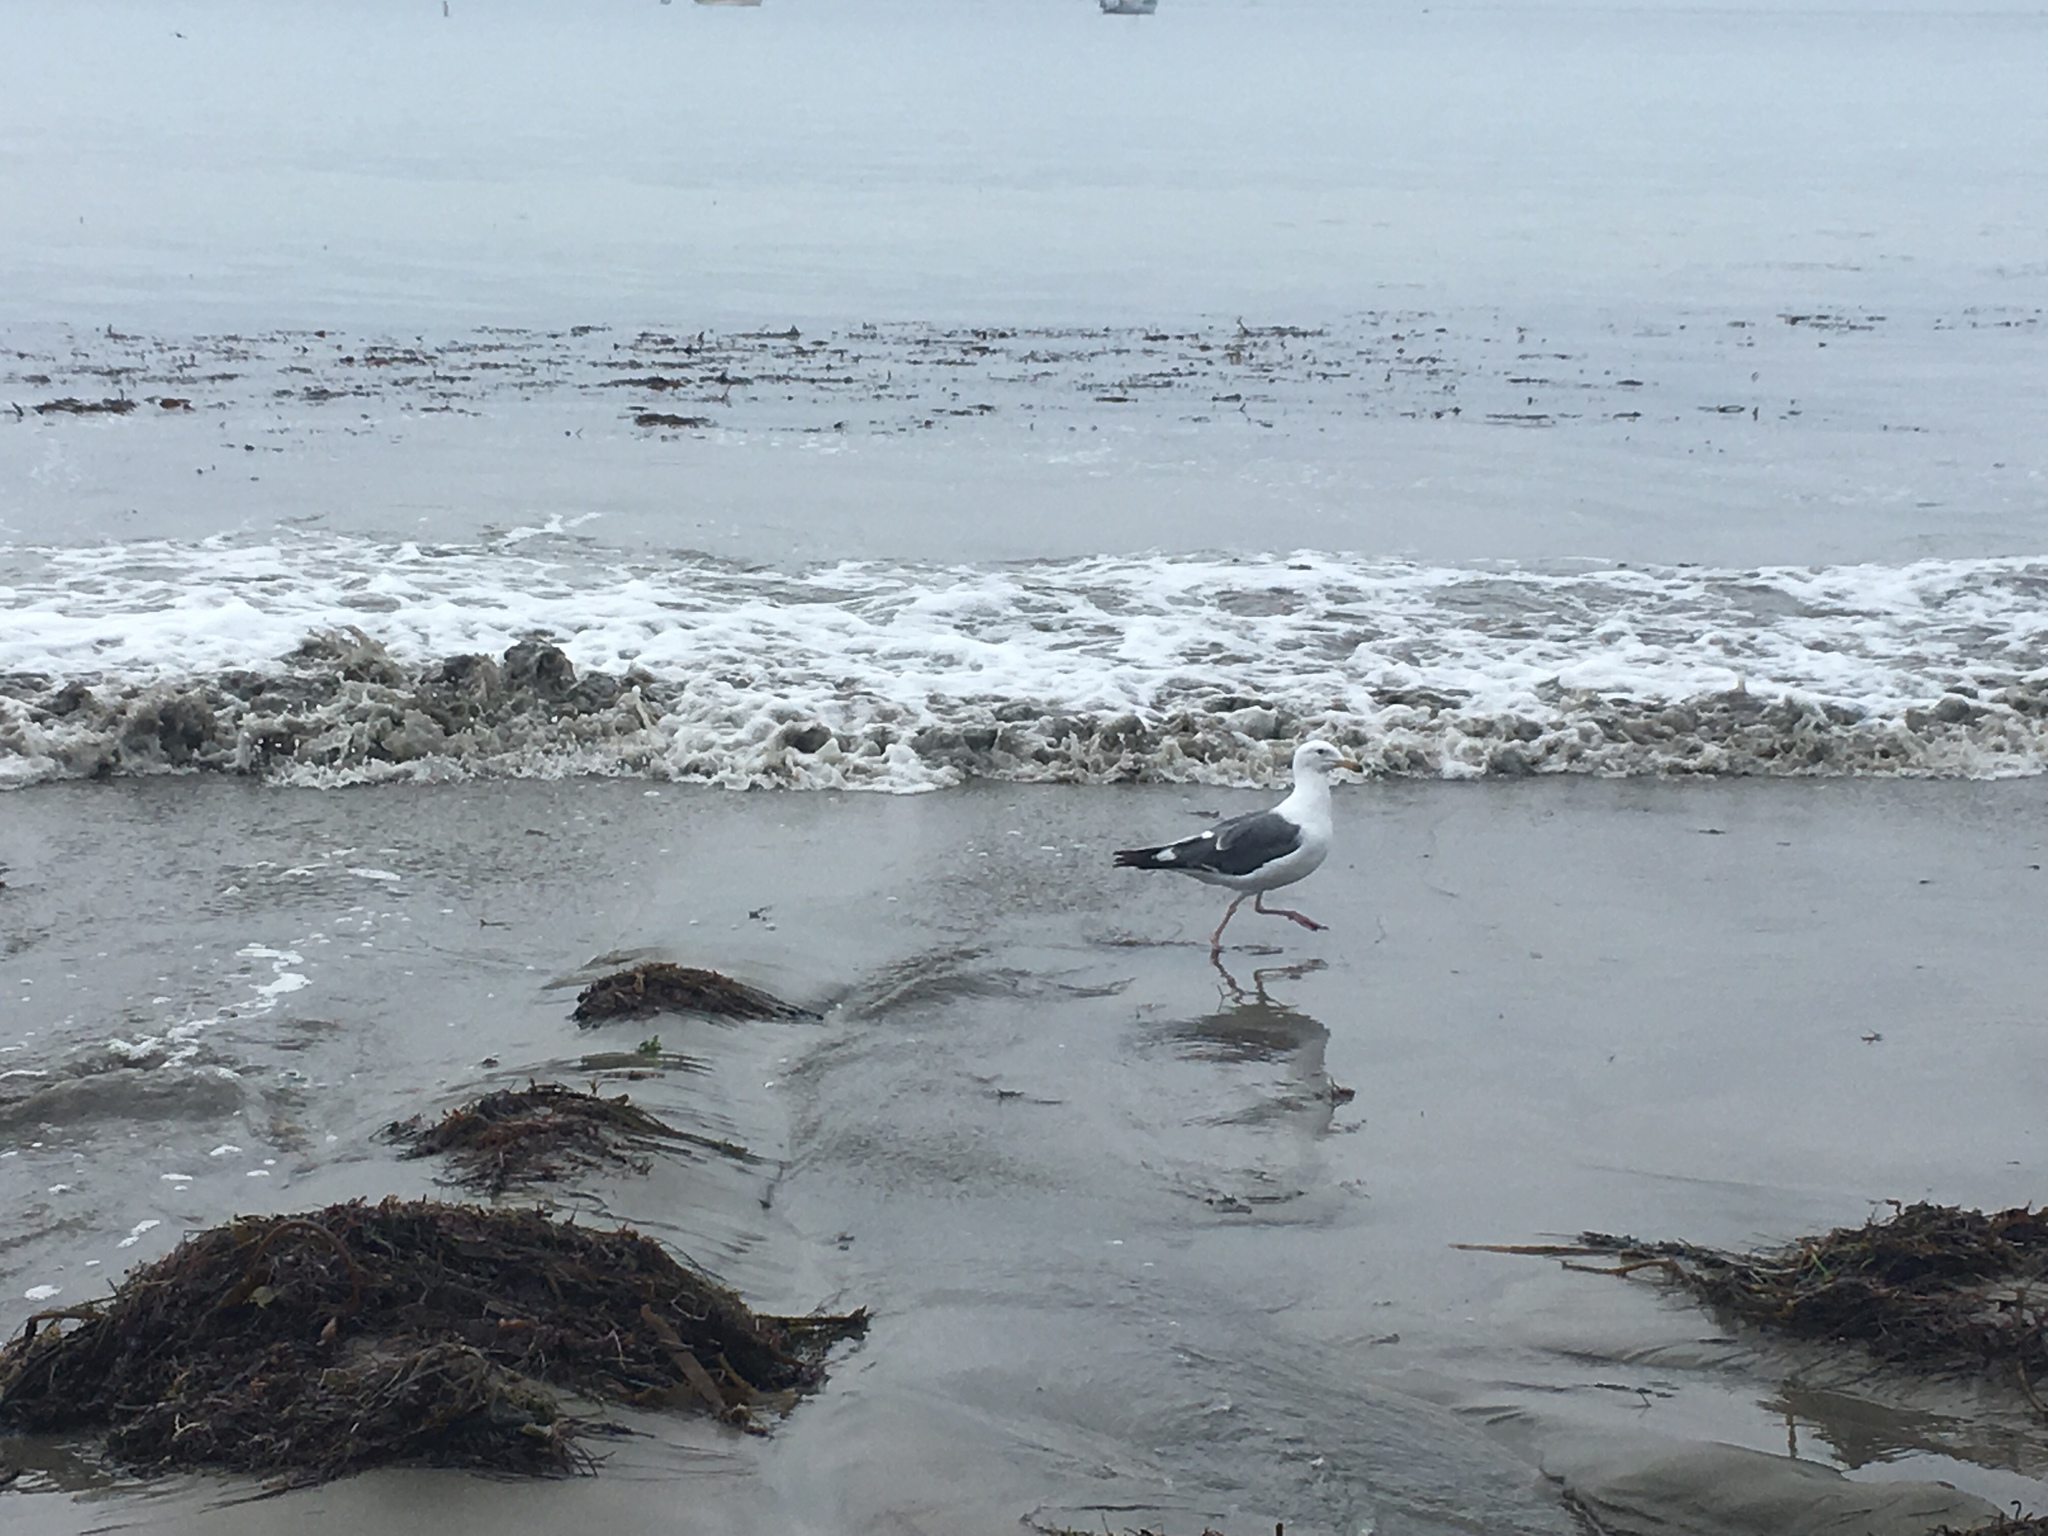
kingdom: Animalia
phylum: Chordata
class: Aves
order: Charadriiformes
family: Laridae
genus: Larus
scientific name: Larus occidentalis
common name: Western gull
